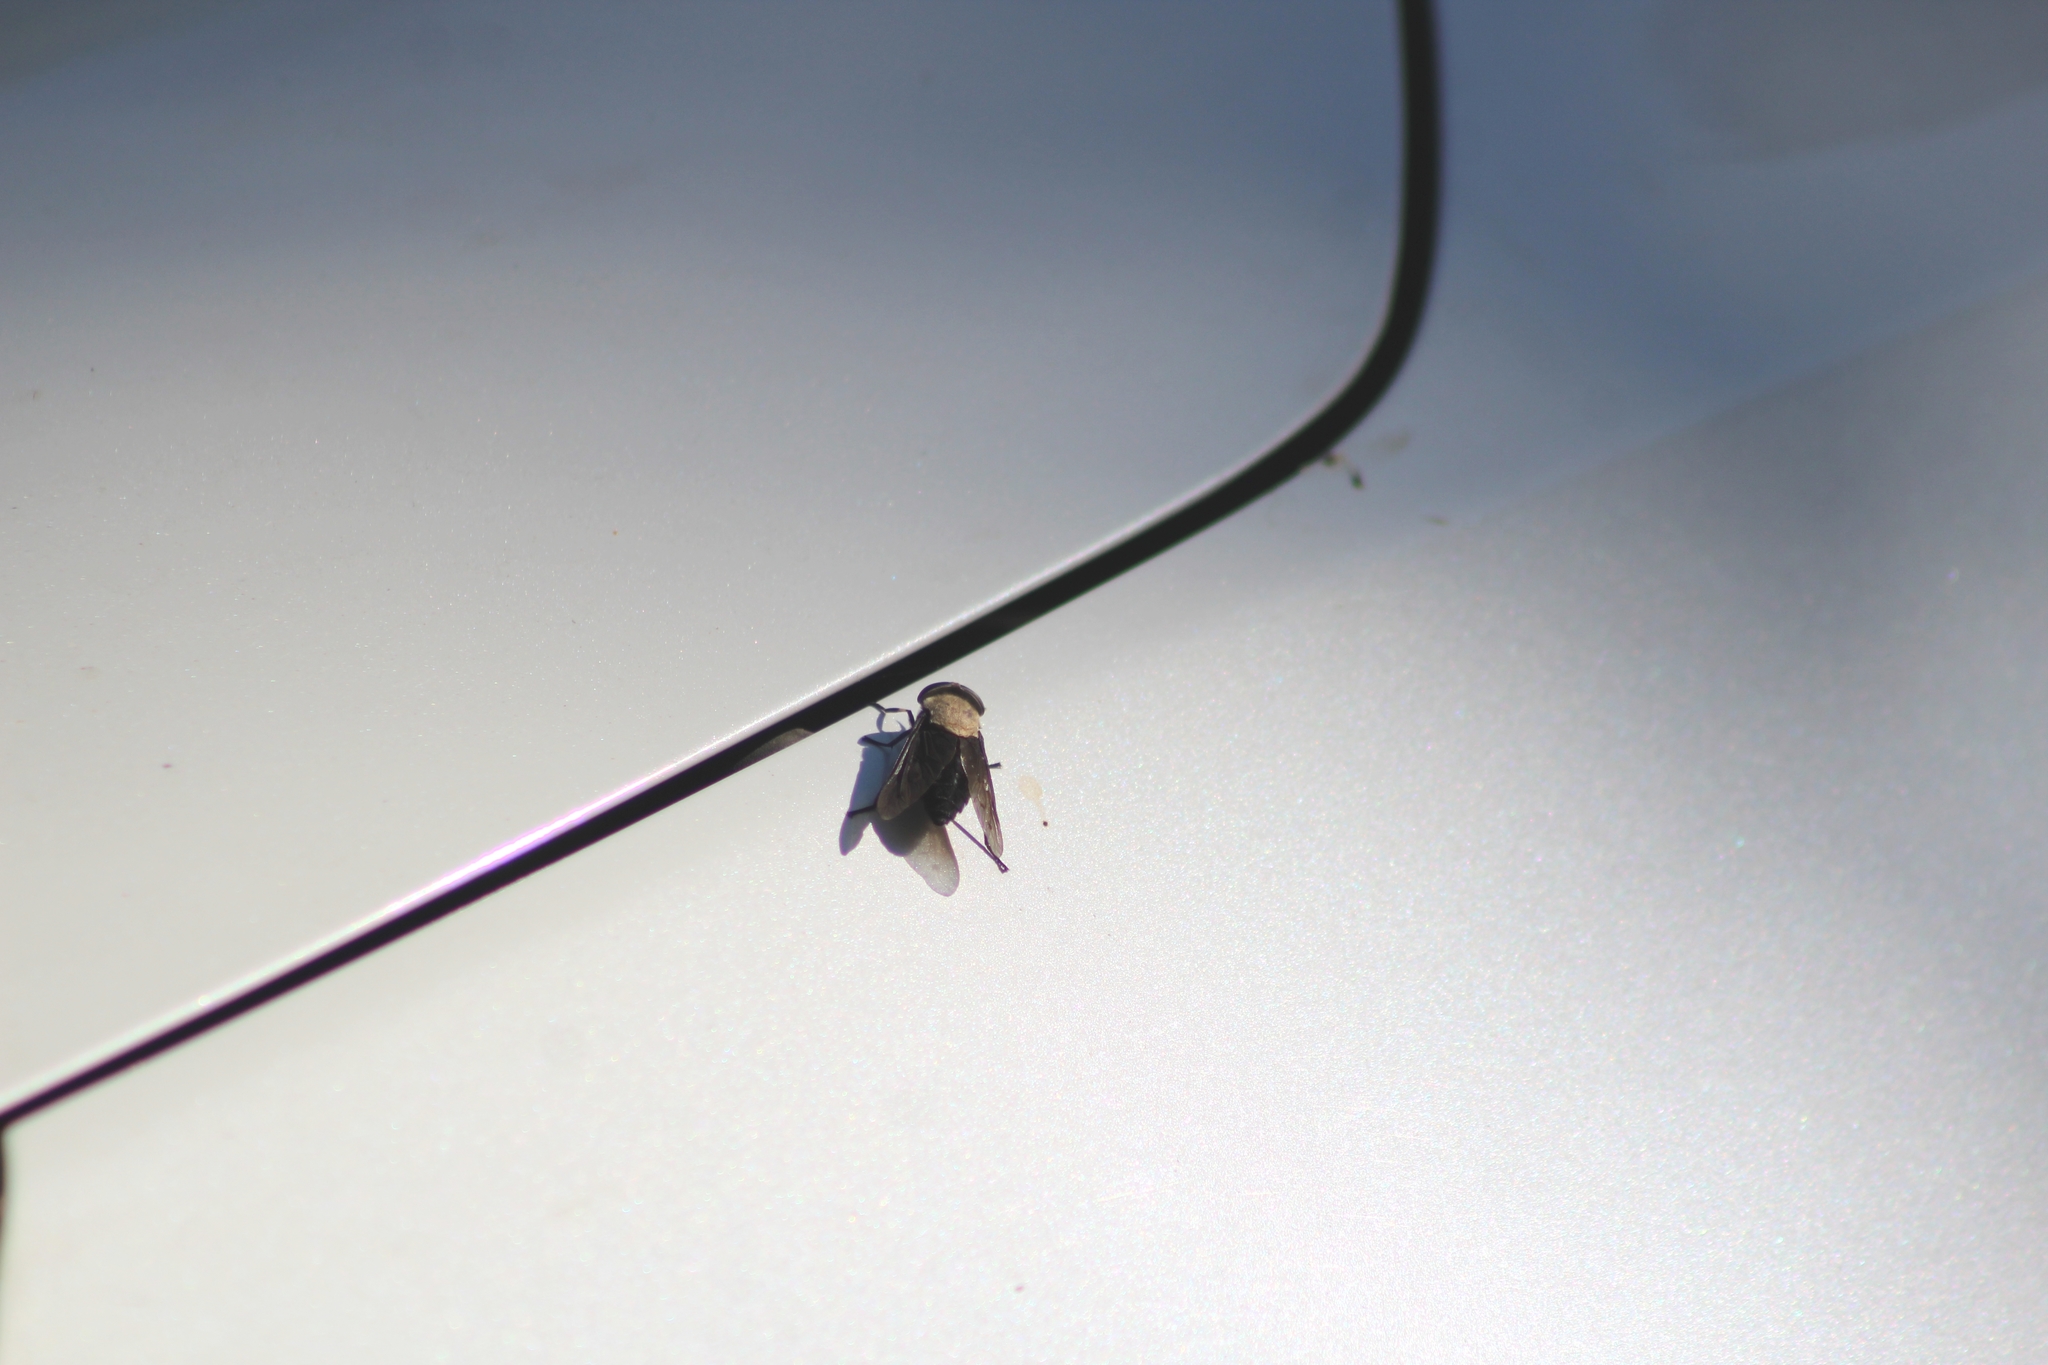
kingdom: Animalia
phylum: Arthropoda
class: Insecta
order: Diptera
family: Tabanidae
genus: Tabanus
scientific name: Tabanus punctifer
